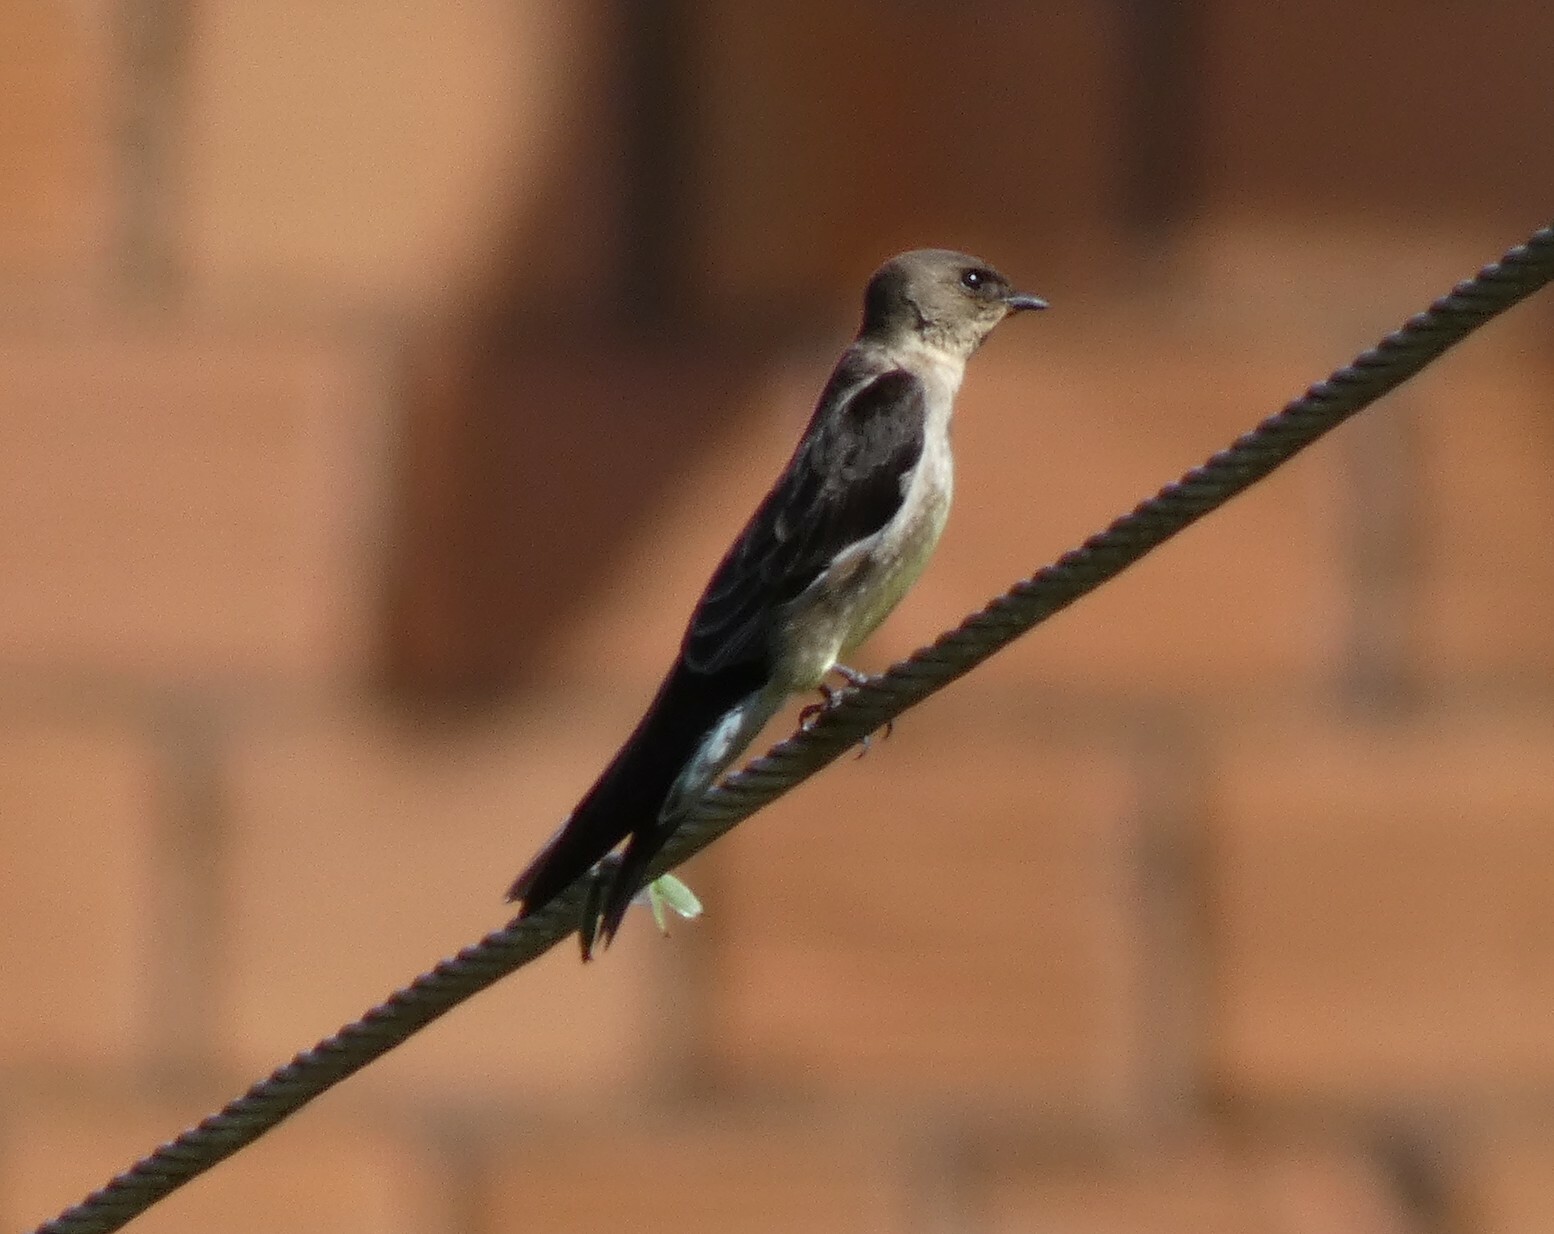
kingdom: Animalia
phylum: Chordata
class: Aves
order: Passeriformes
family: Hirundinidae
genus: Stelgidopteryx
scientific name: Stelgidopteryx ruficollis
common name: Southern rough-winged swallow
